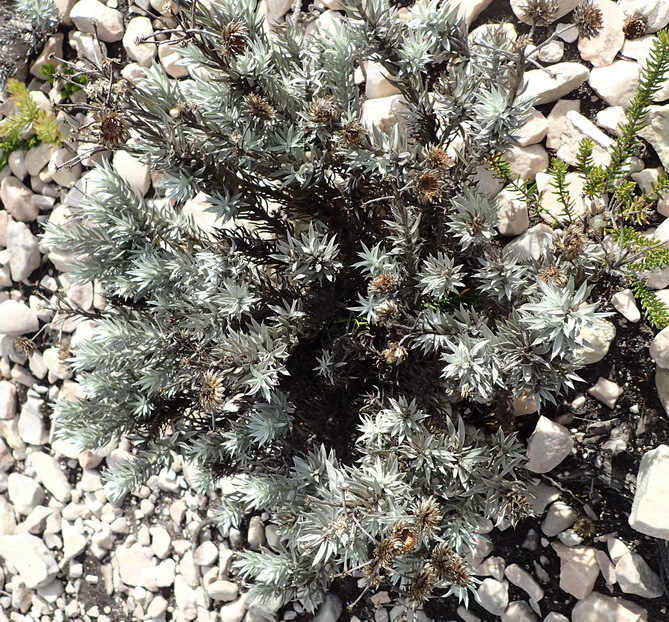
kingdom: Plantae
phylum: Tracheophyta
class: Magnoliopsida
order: Asterales
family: Asteraceae
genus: Achyranthemum
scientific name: Achyranthemum paniculatum
